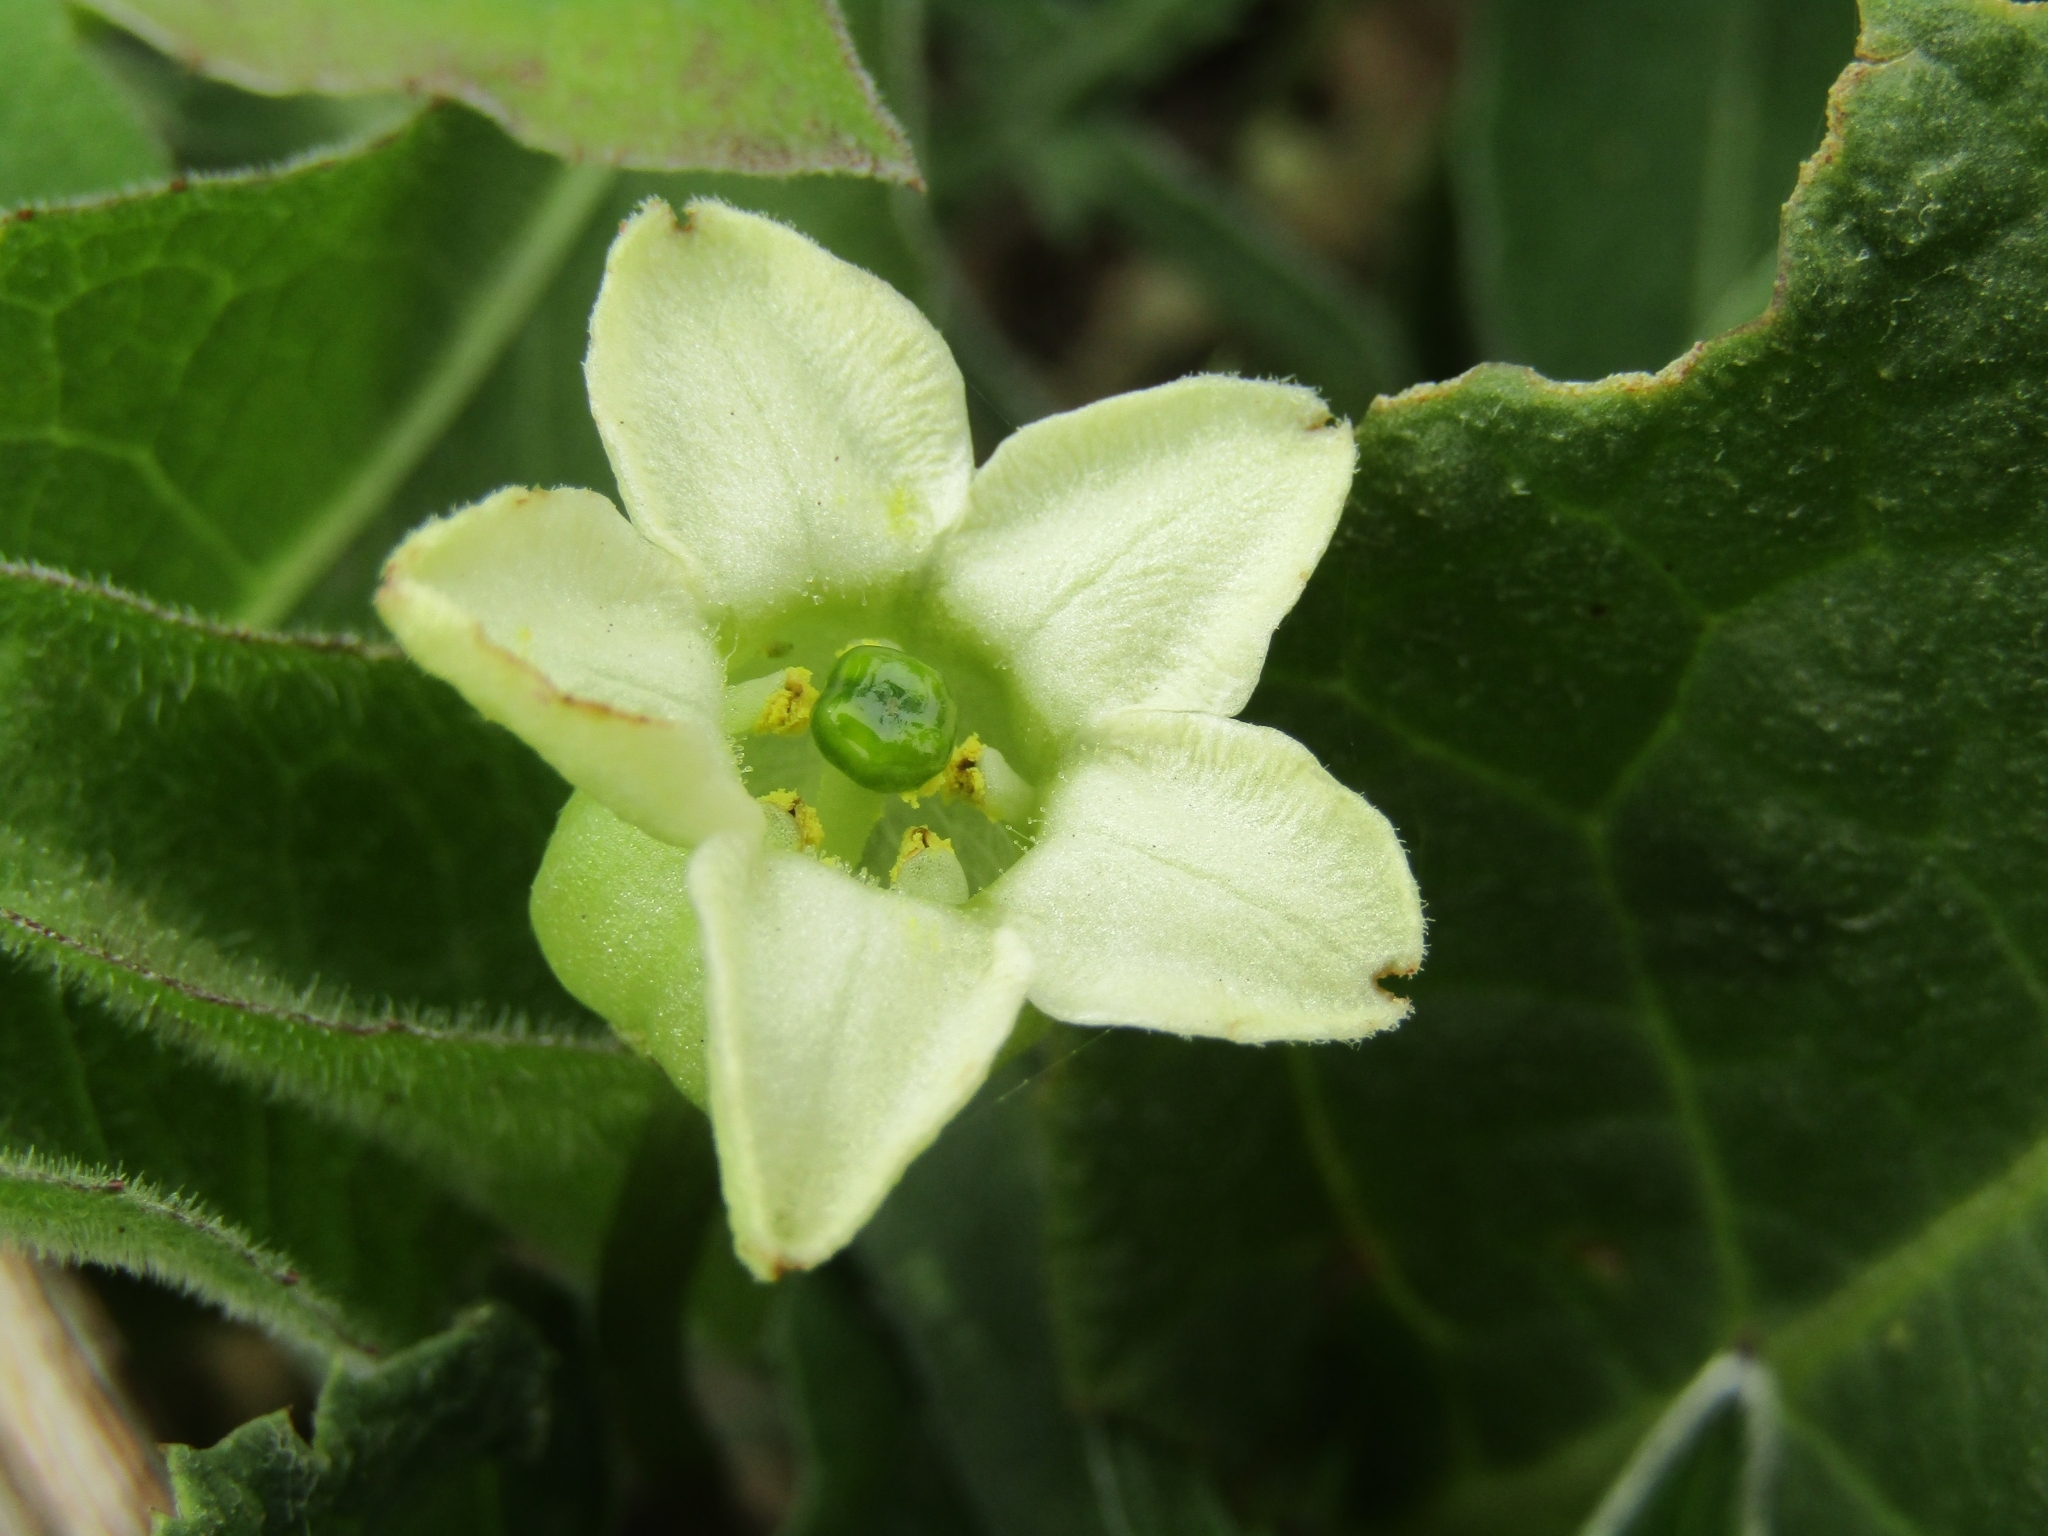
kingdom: Plantae
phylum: Tracheophyta
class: Magnoliopsida
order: Solanales
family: Solanaceae
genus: Jaborosa
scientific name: Jaborosa runcinata
